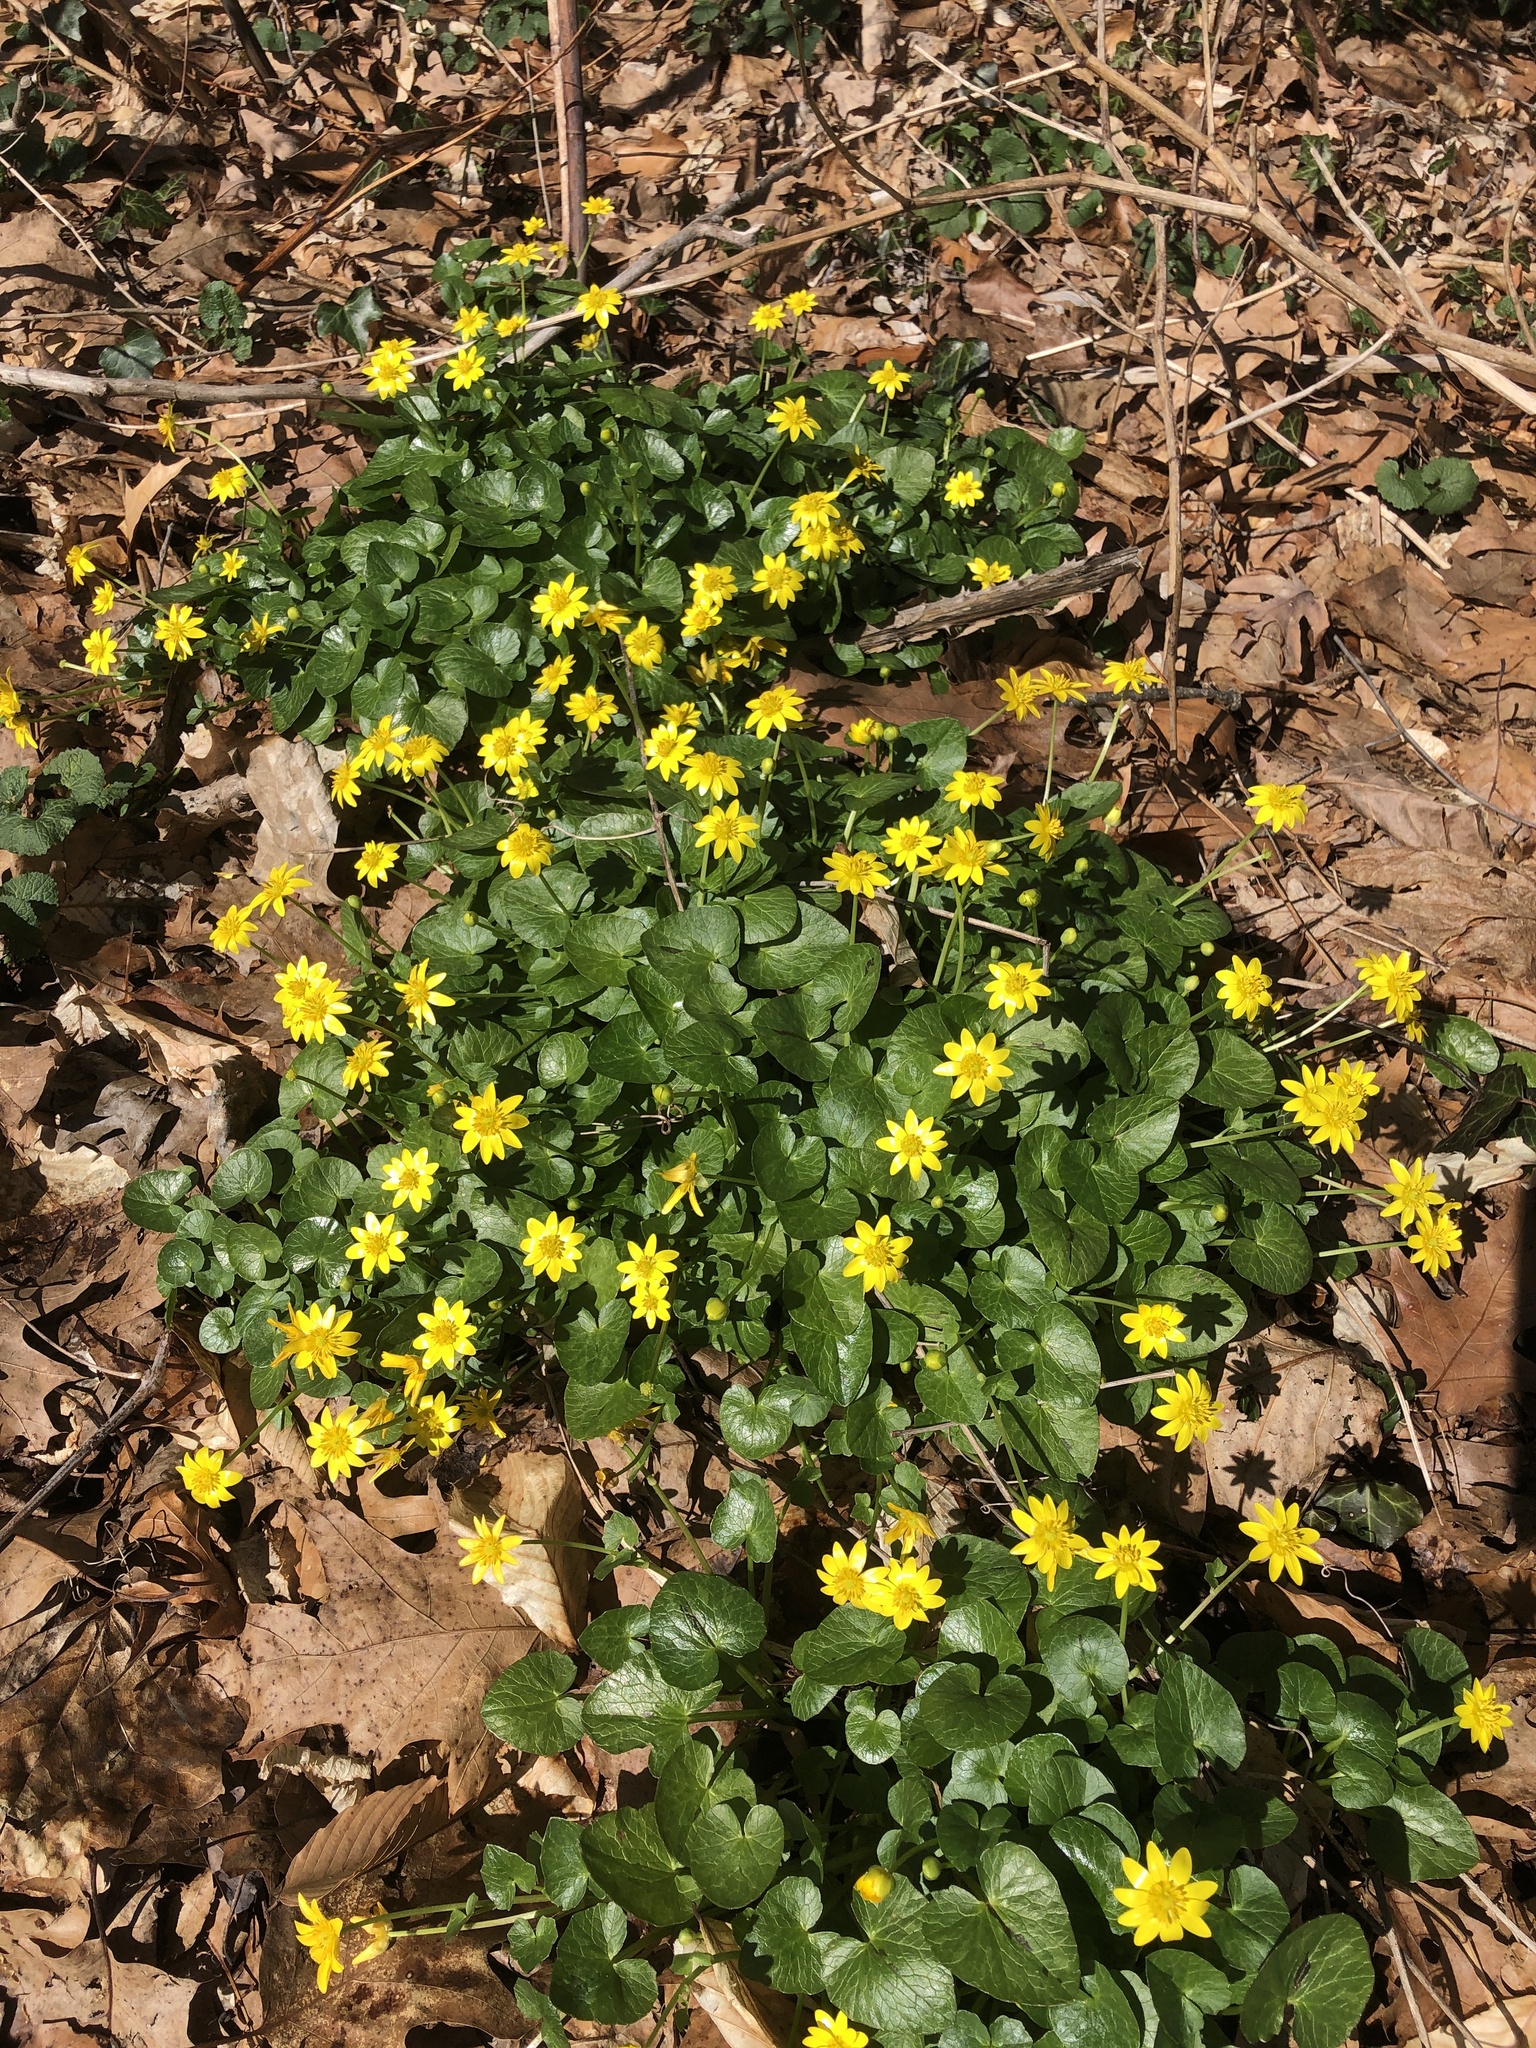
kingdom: Plantae
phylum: Tracheophyta
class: Magnoliopsida
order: Ranunculales
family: Ranunculaceae
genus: Ficaria
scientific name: Ficaria verna
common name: Lesser celandine
